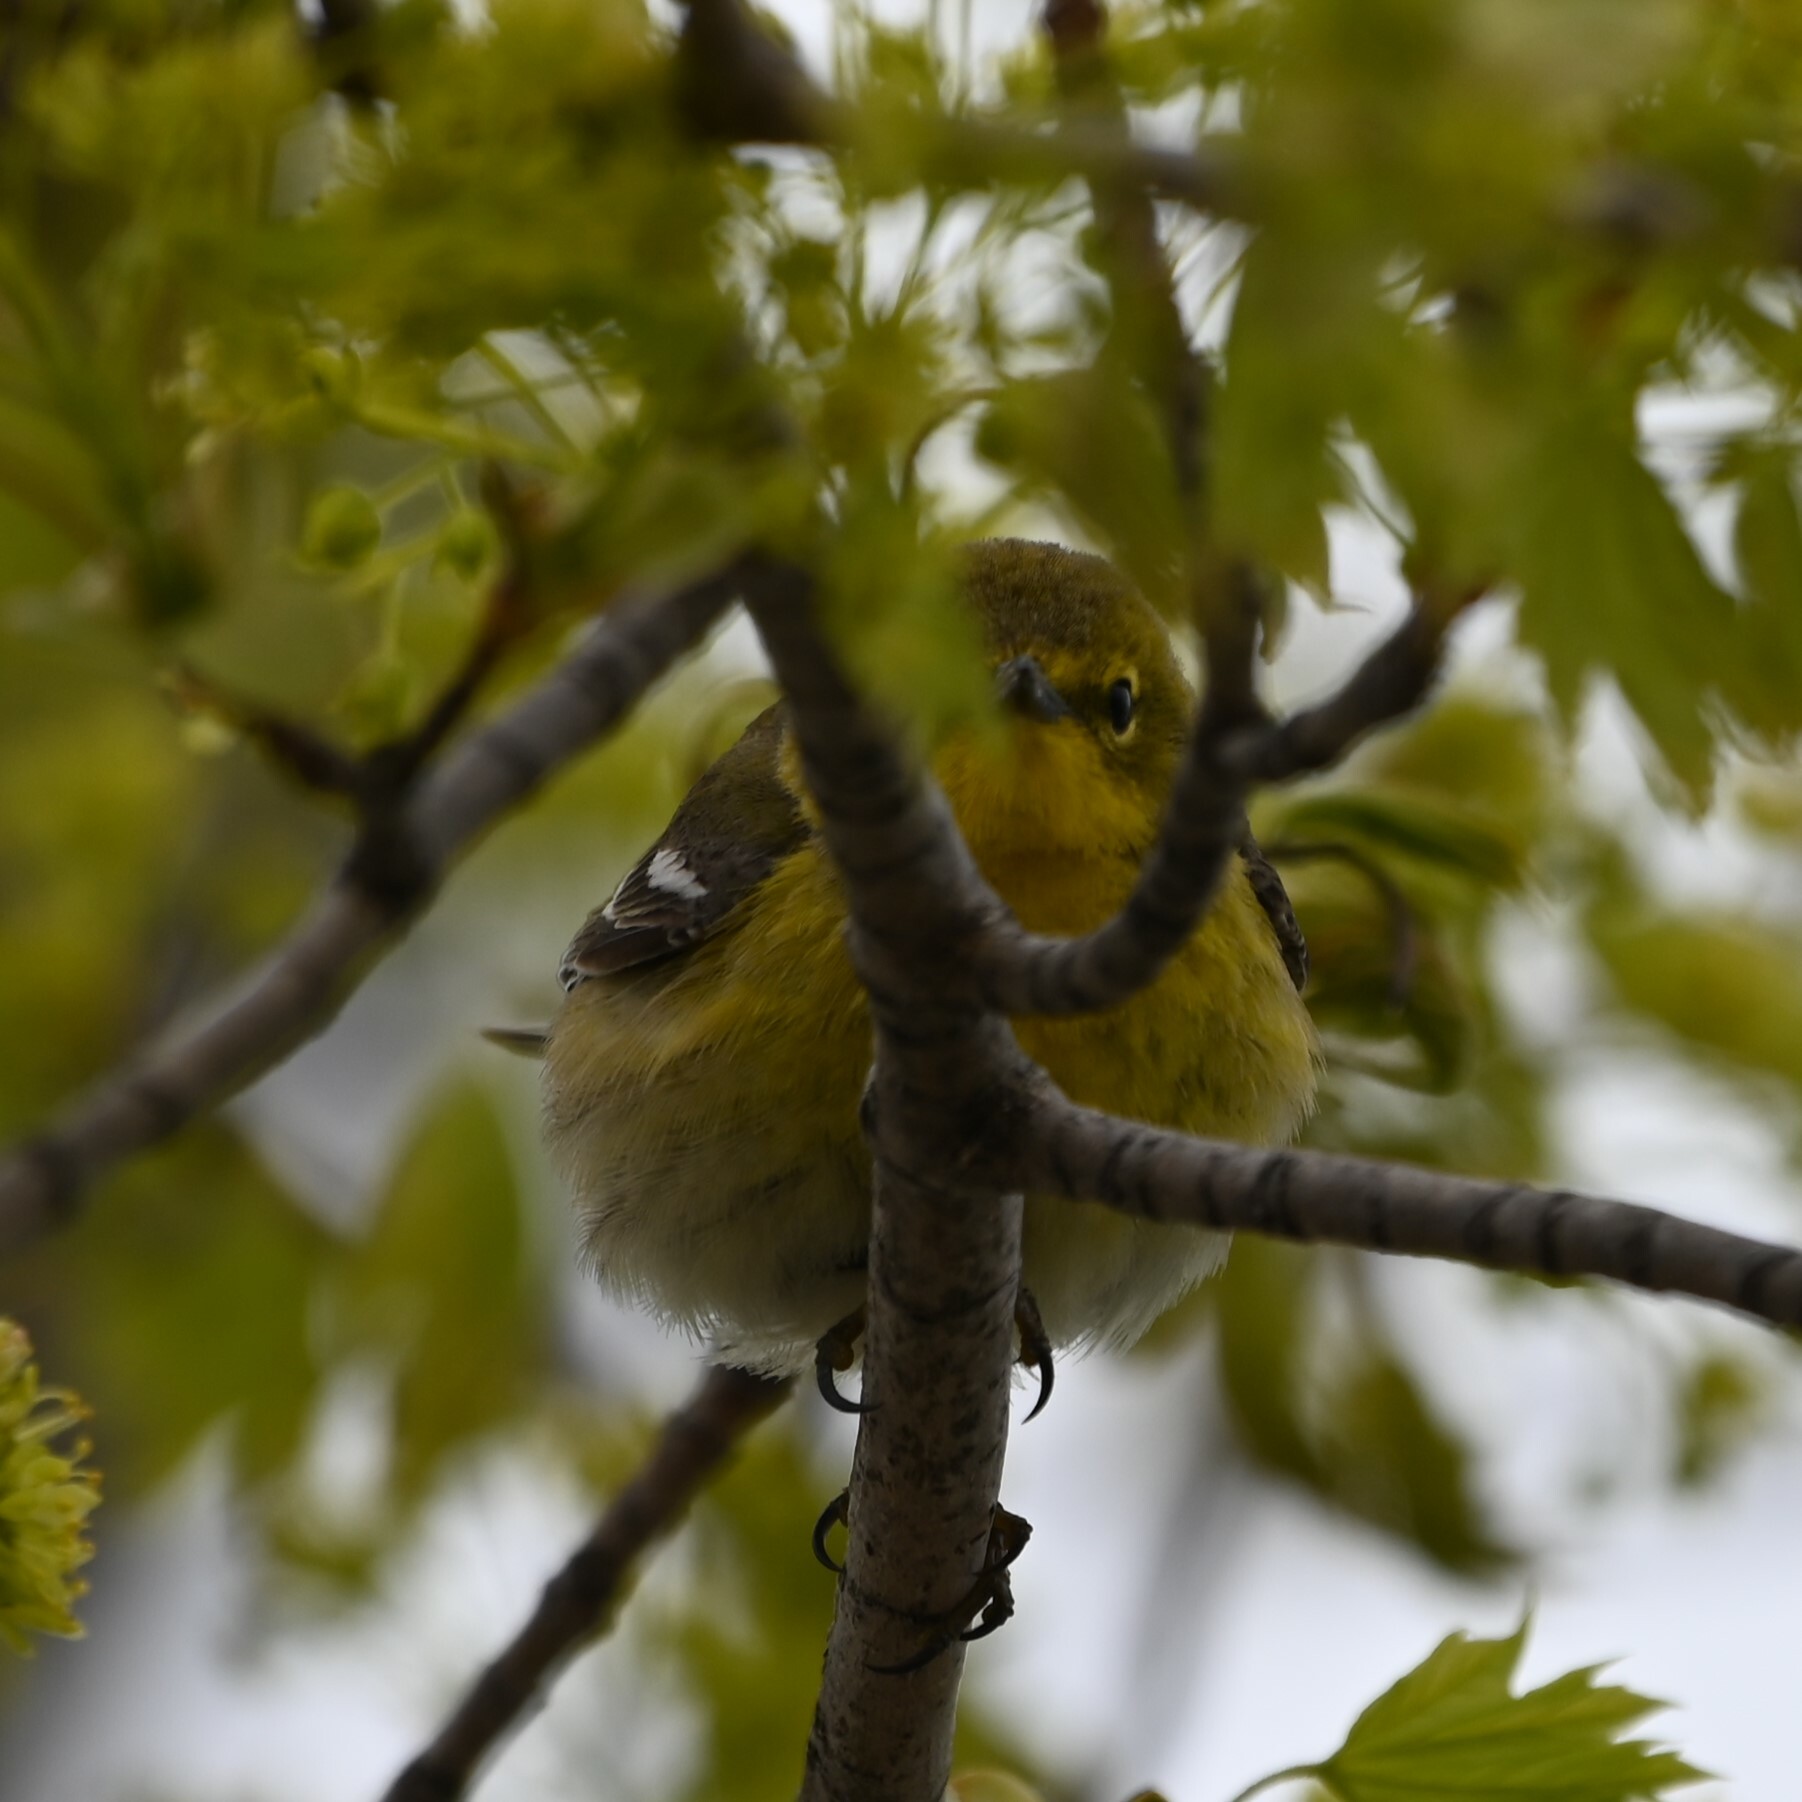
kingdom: Animalia
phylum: Chordata
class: Aves
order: Passeriformes
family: Parulidae
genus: Setophaga
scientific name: Setophaga pinus
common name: Pine warbler
